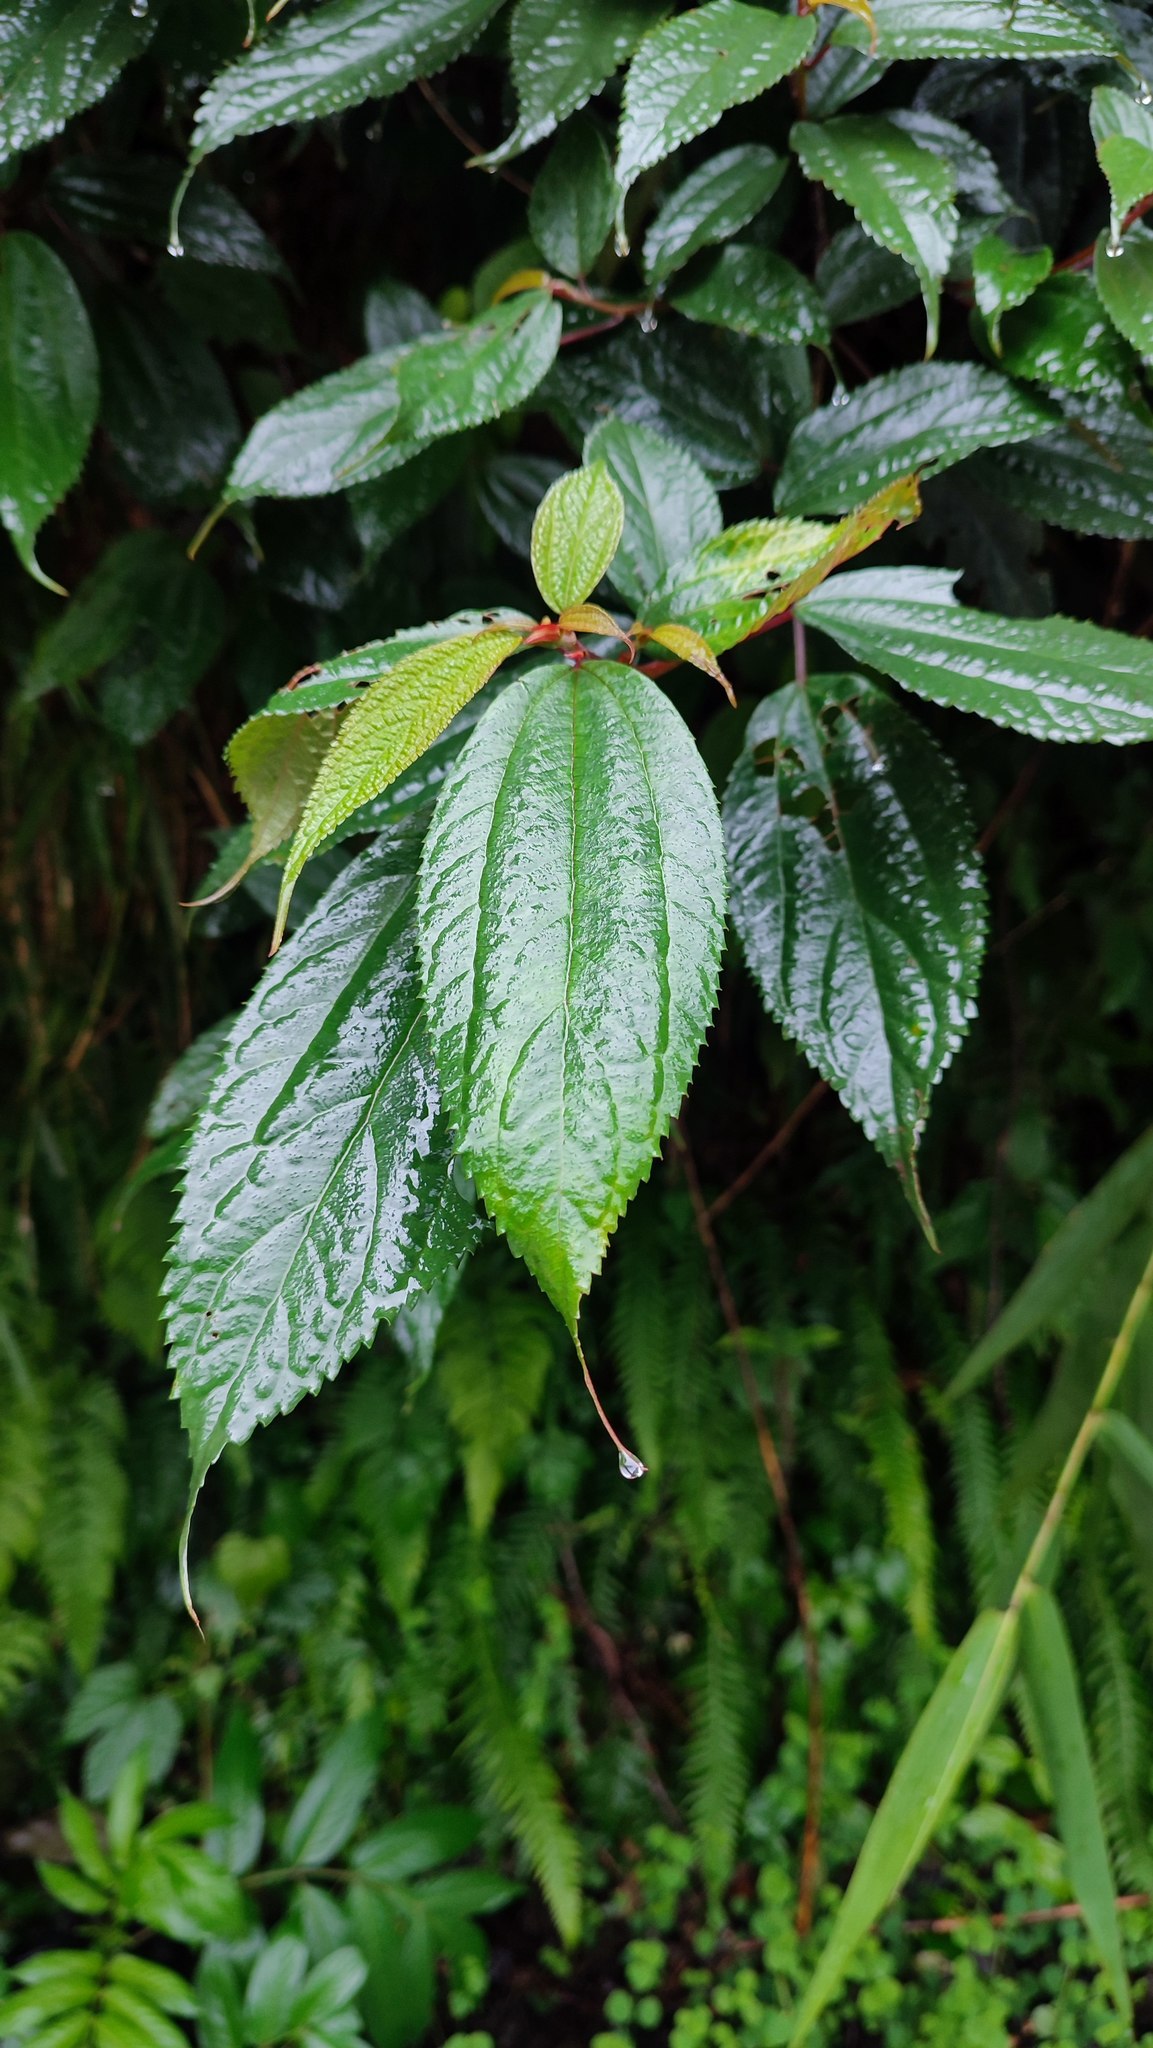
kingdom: Plantae
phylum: Tracheophyta
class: Magnoliopsida
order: Rosales
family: Urticaceae
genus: Oreocnide
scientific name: Oreocnide pedunculata
